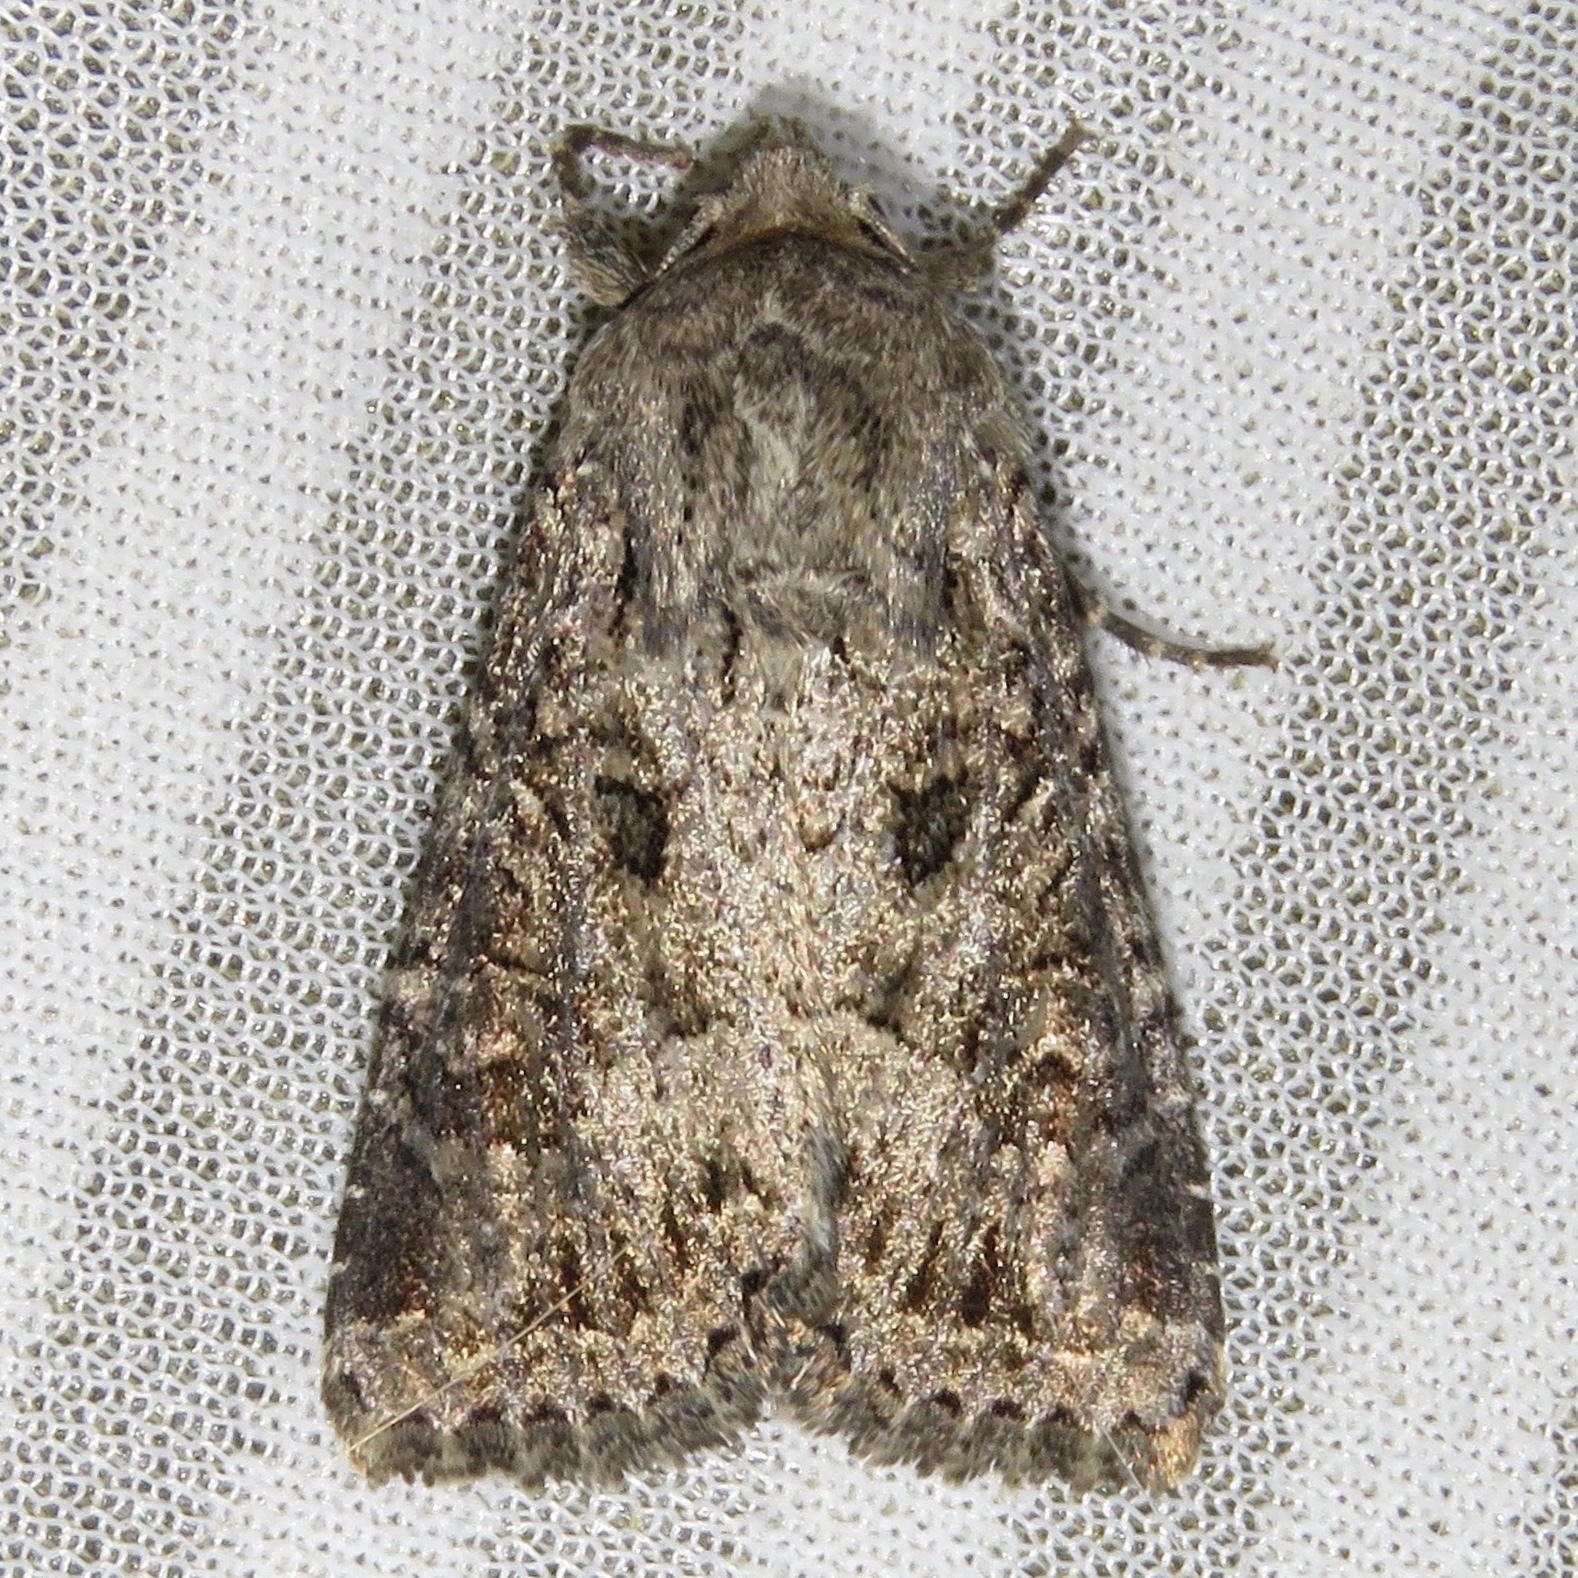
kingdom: Animalia
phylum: Arthropoda
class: Insecta
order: Lepidoptera
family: Noctuidae
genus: Apamea
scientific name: Apamea devastator
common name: Glassy cutworm
